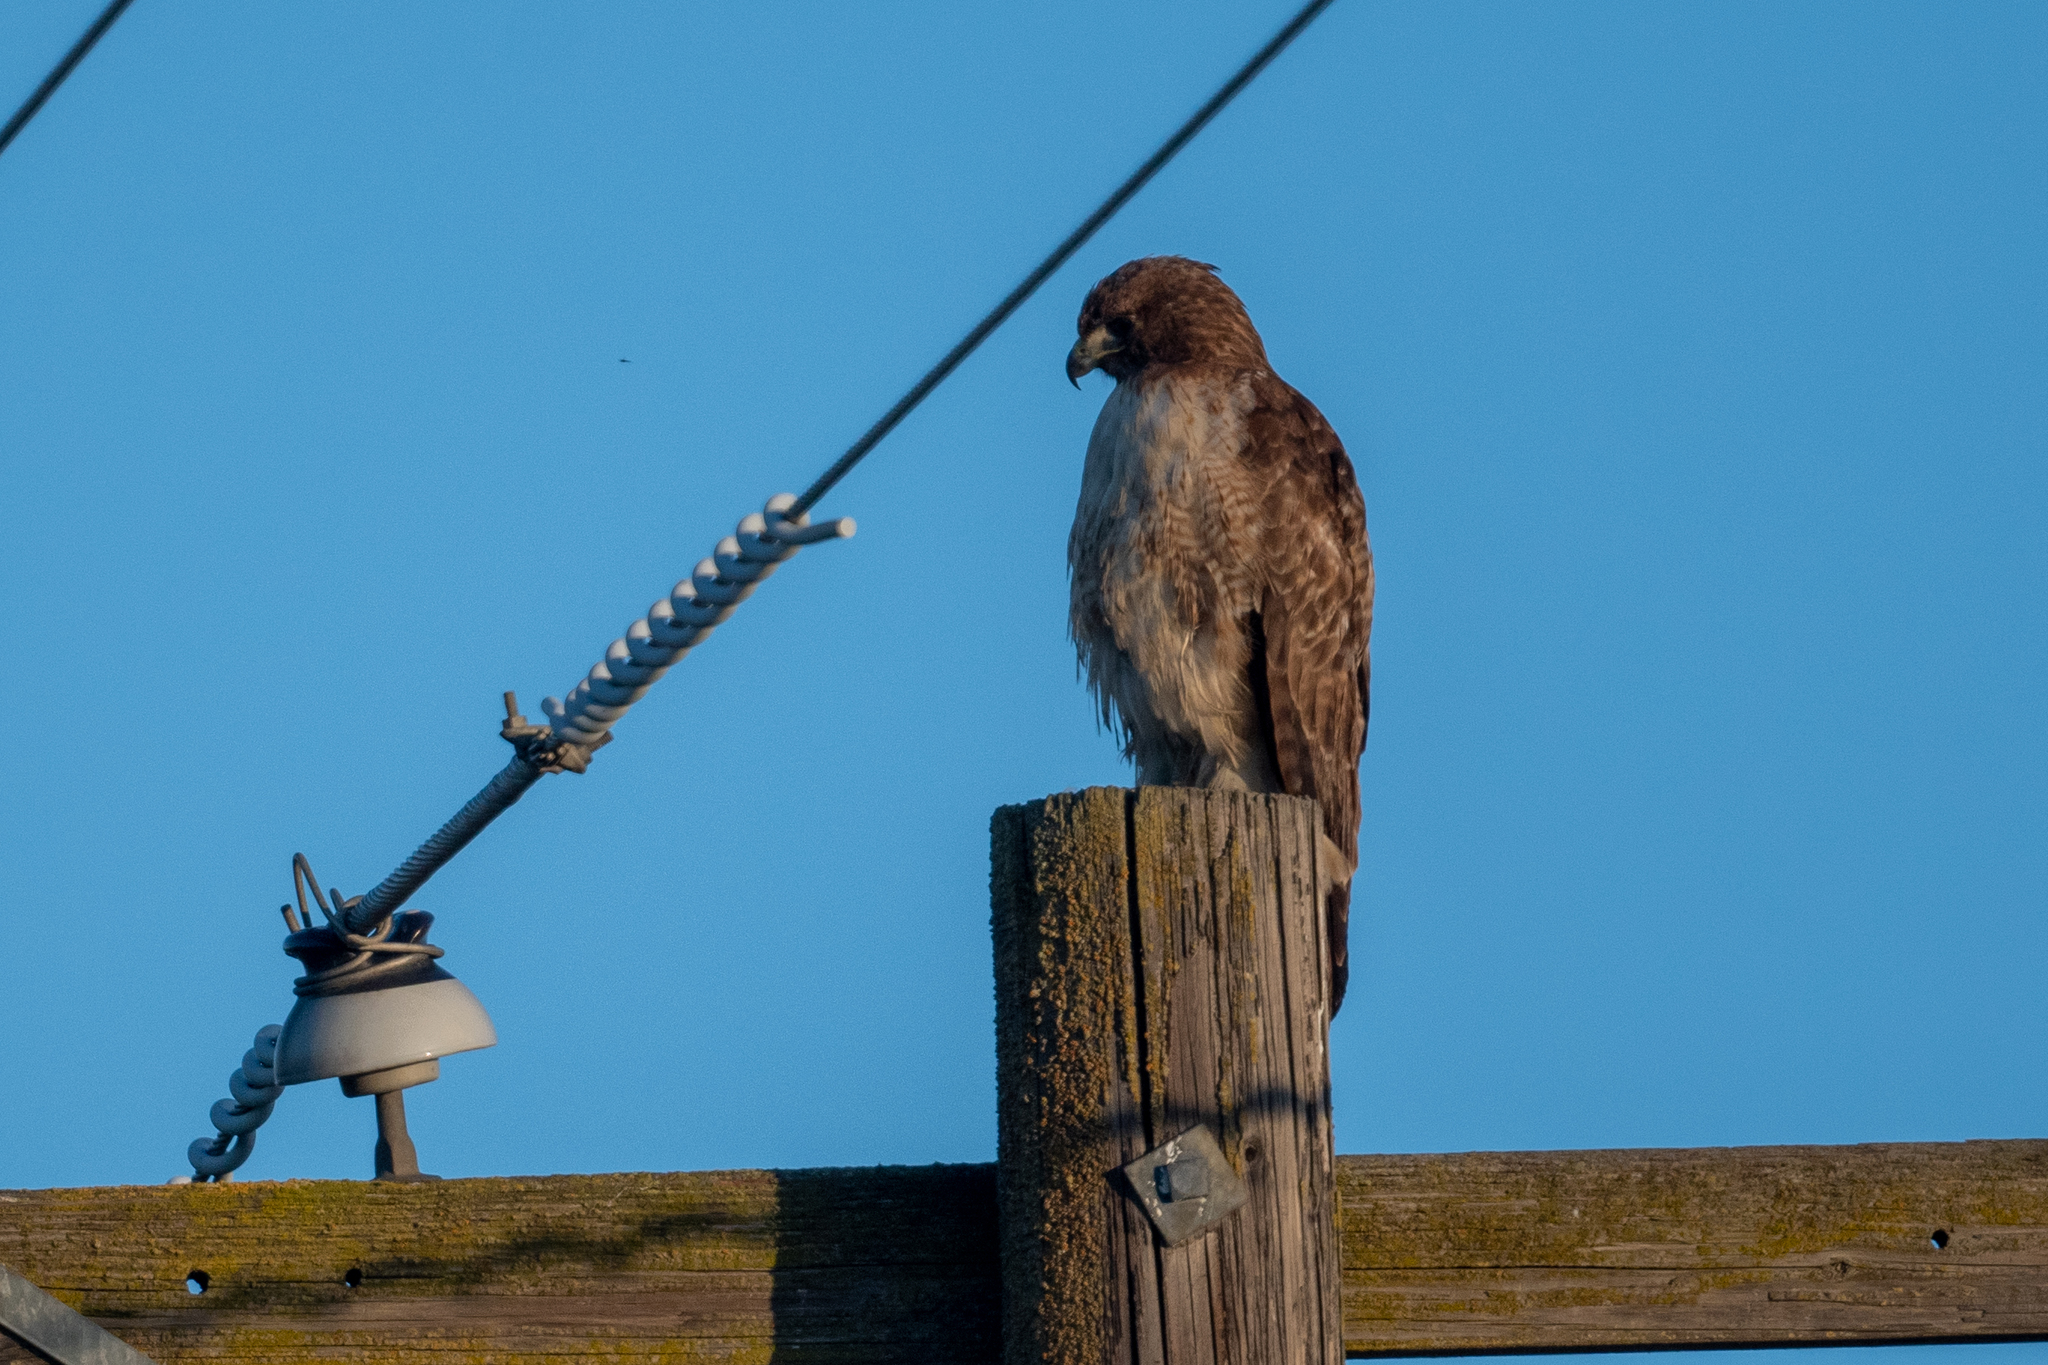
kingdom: Animalia
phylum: Chordata
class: Aves
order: Accipitriformes
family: Accipitridae
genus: Buteo
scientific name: Buteo jamaicensis
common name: Red-tailed hawk
